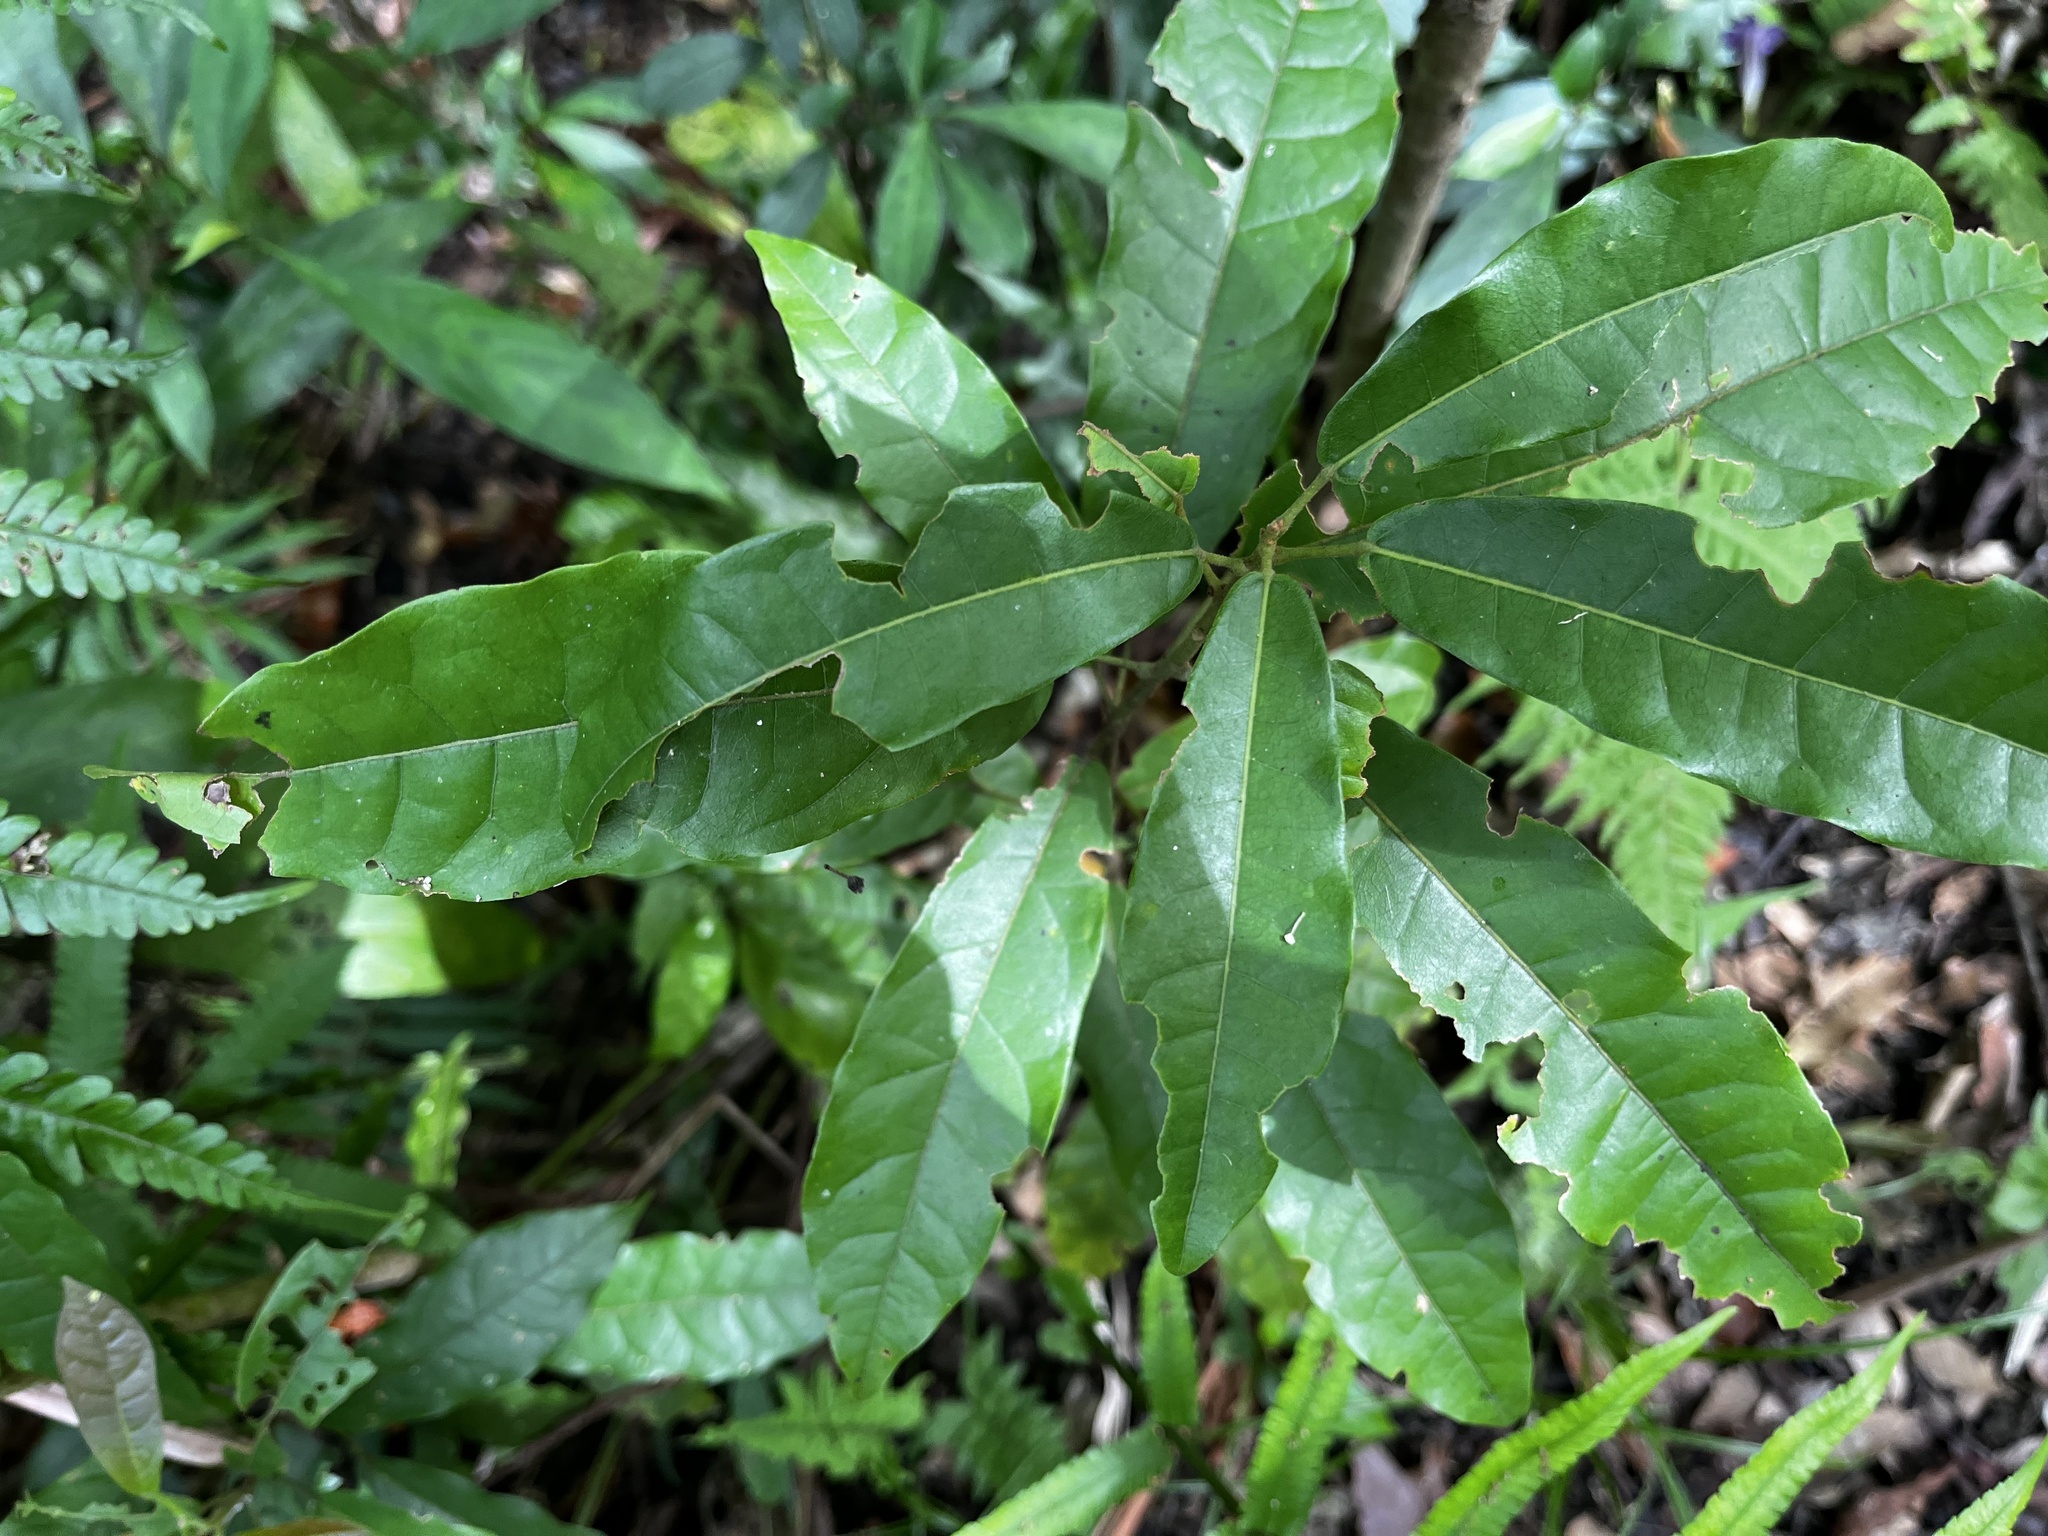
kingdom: Plantae
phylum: Tracheophyta
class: Magnoliopsida
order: Malvales
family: Malvaceae
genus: Reevesia
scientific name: Reevesia thyrsoidea
